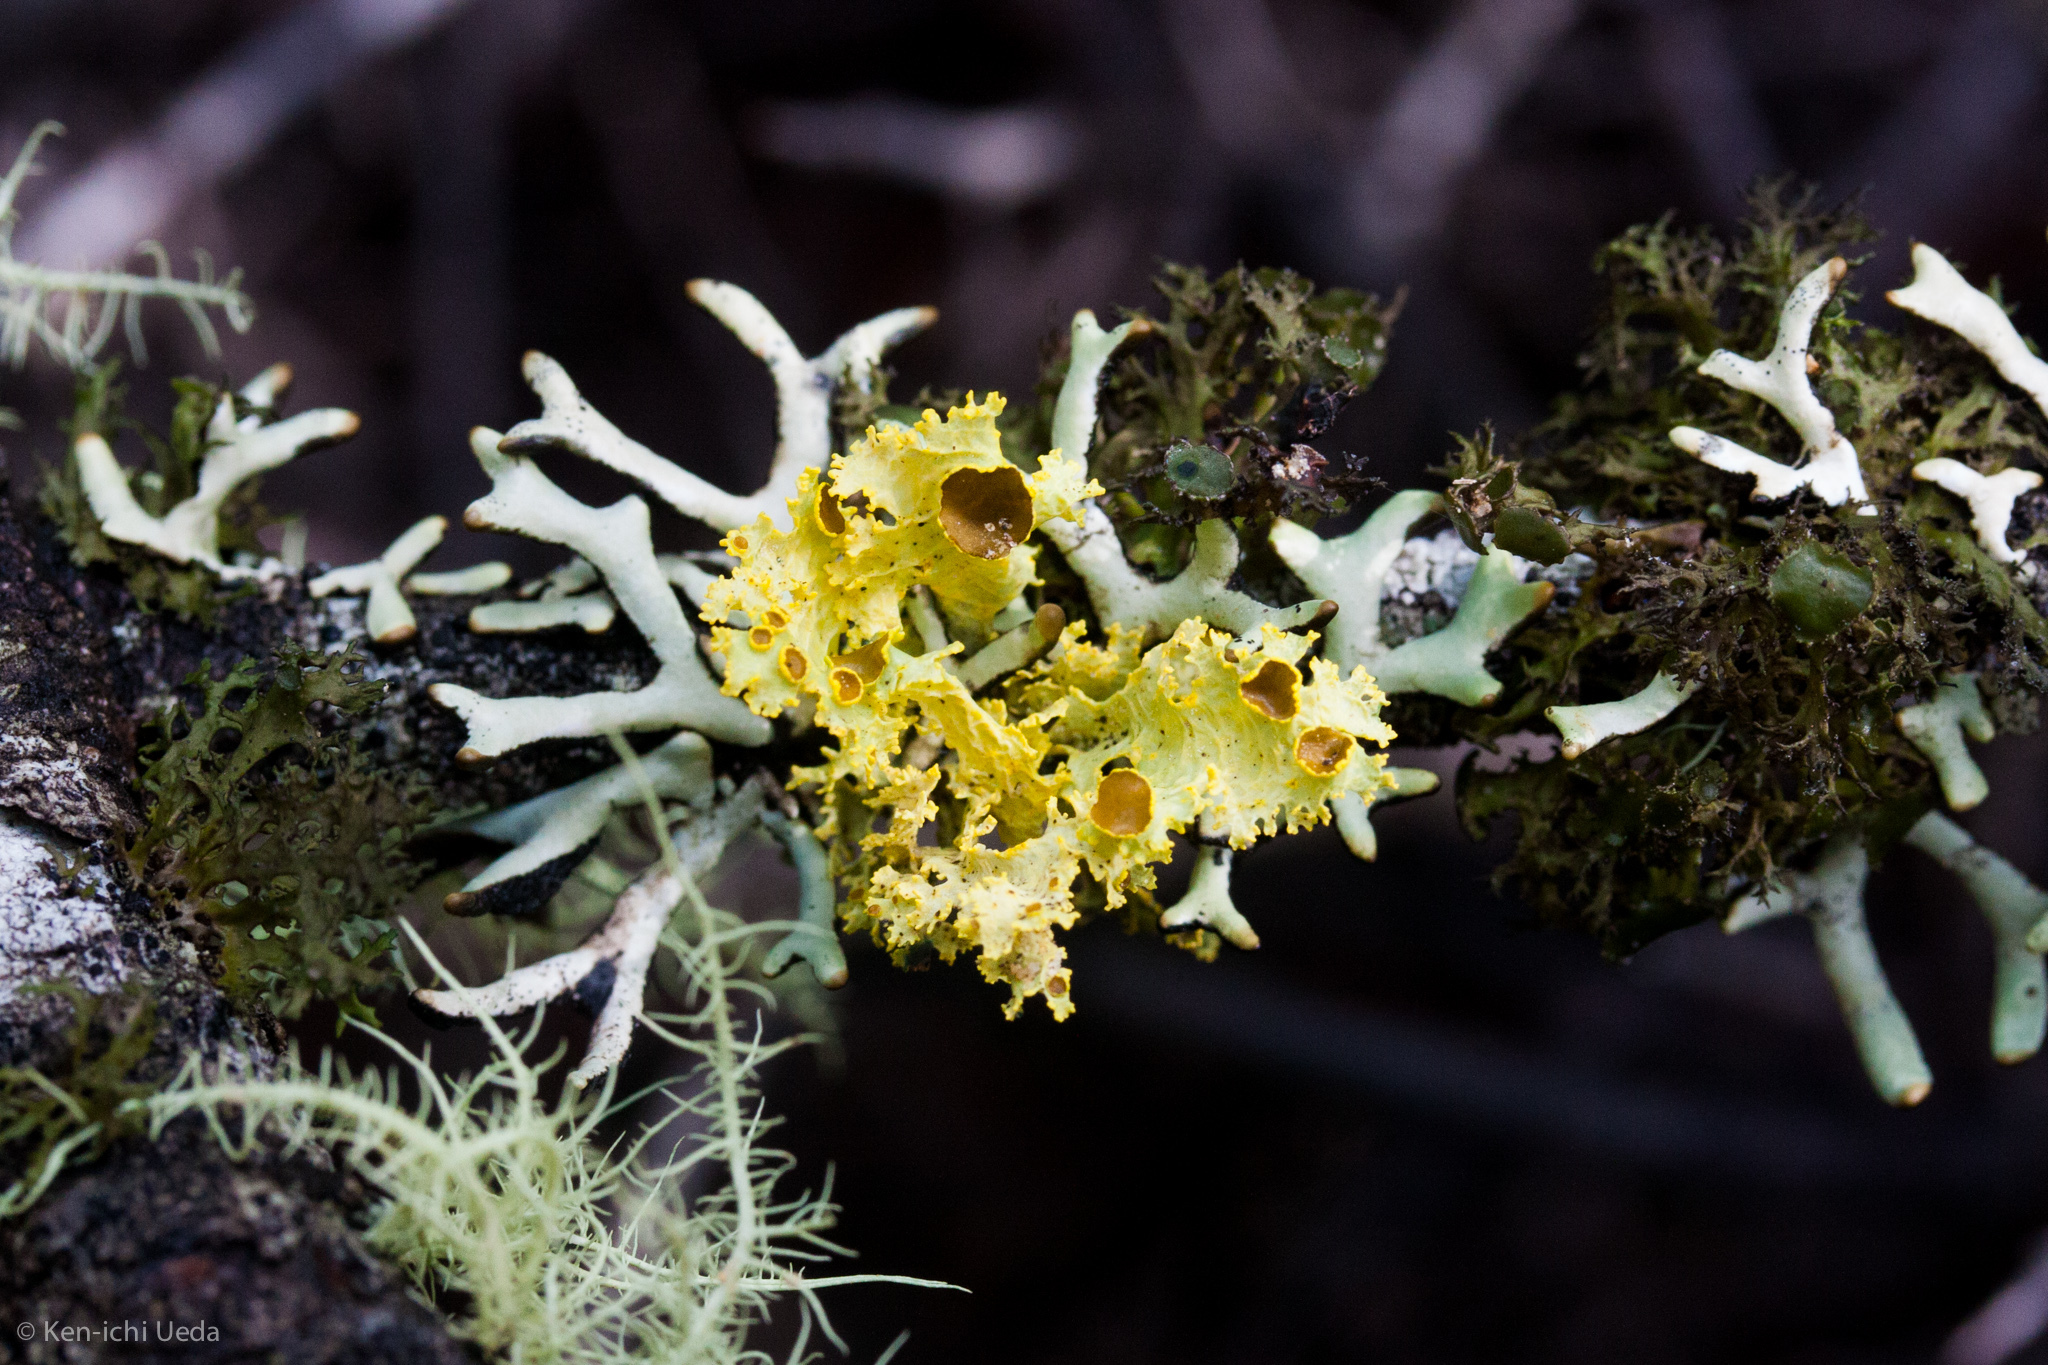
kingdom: Fungi
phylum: Ascomycota
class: Lecanoromycetes
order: Lecanorales
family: Parmeliaceae
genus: Vulpicida
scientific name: Vulpicida canadensis
